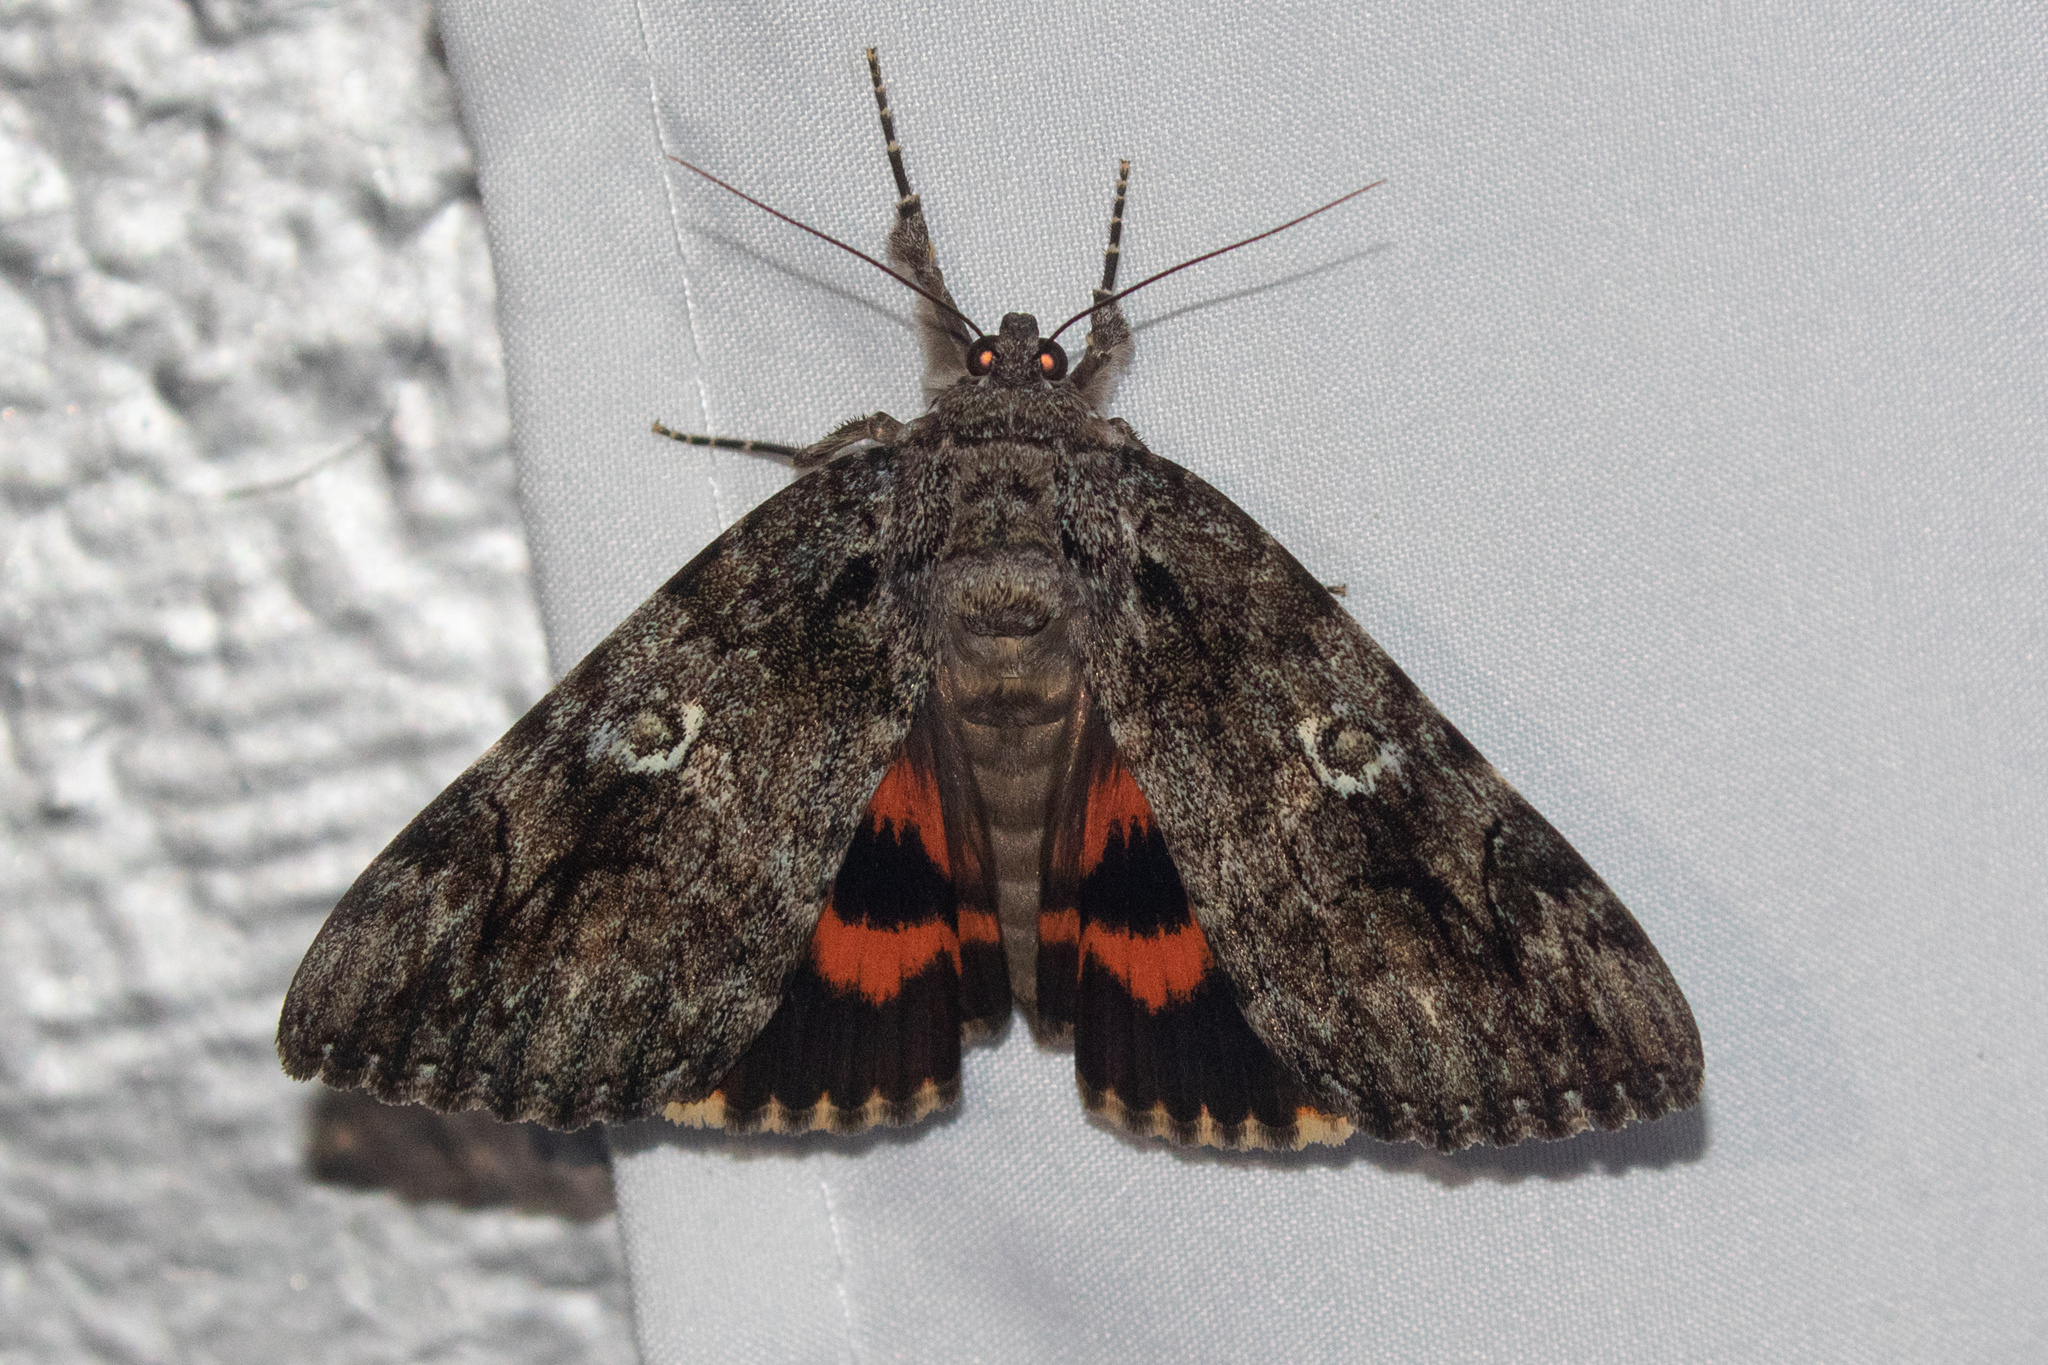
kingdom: Animalia
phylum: Arthropoda
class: Insecta
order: Lepidoptera
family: Erebidae
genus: Catocala
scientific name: Catocala ilia
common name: Ilia underwing
